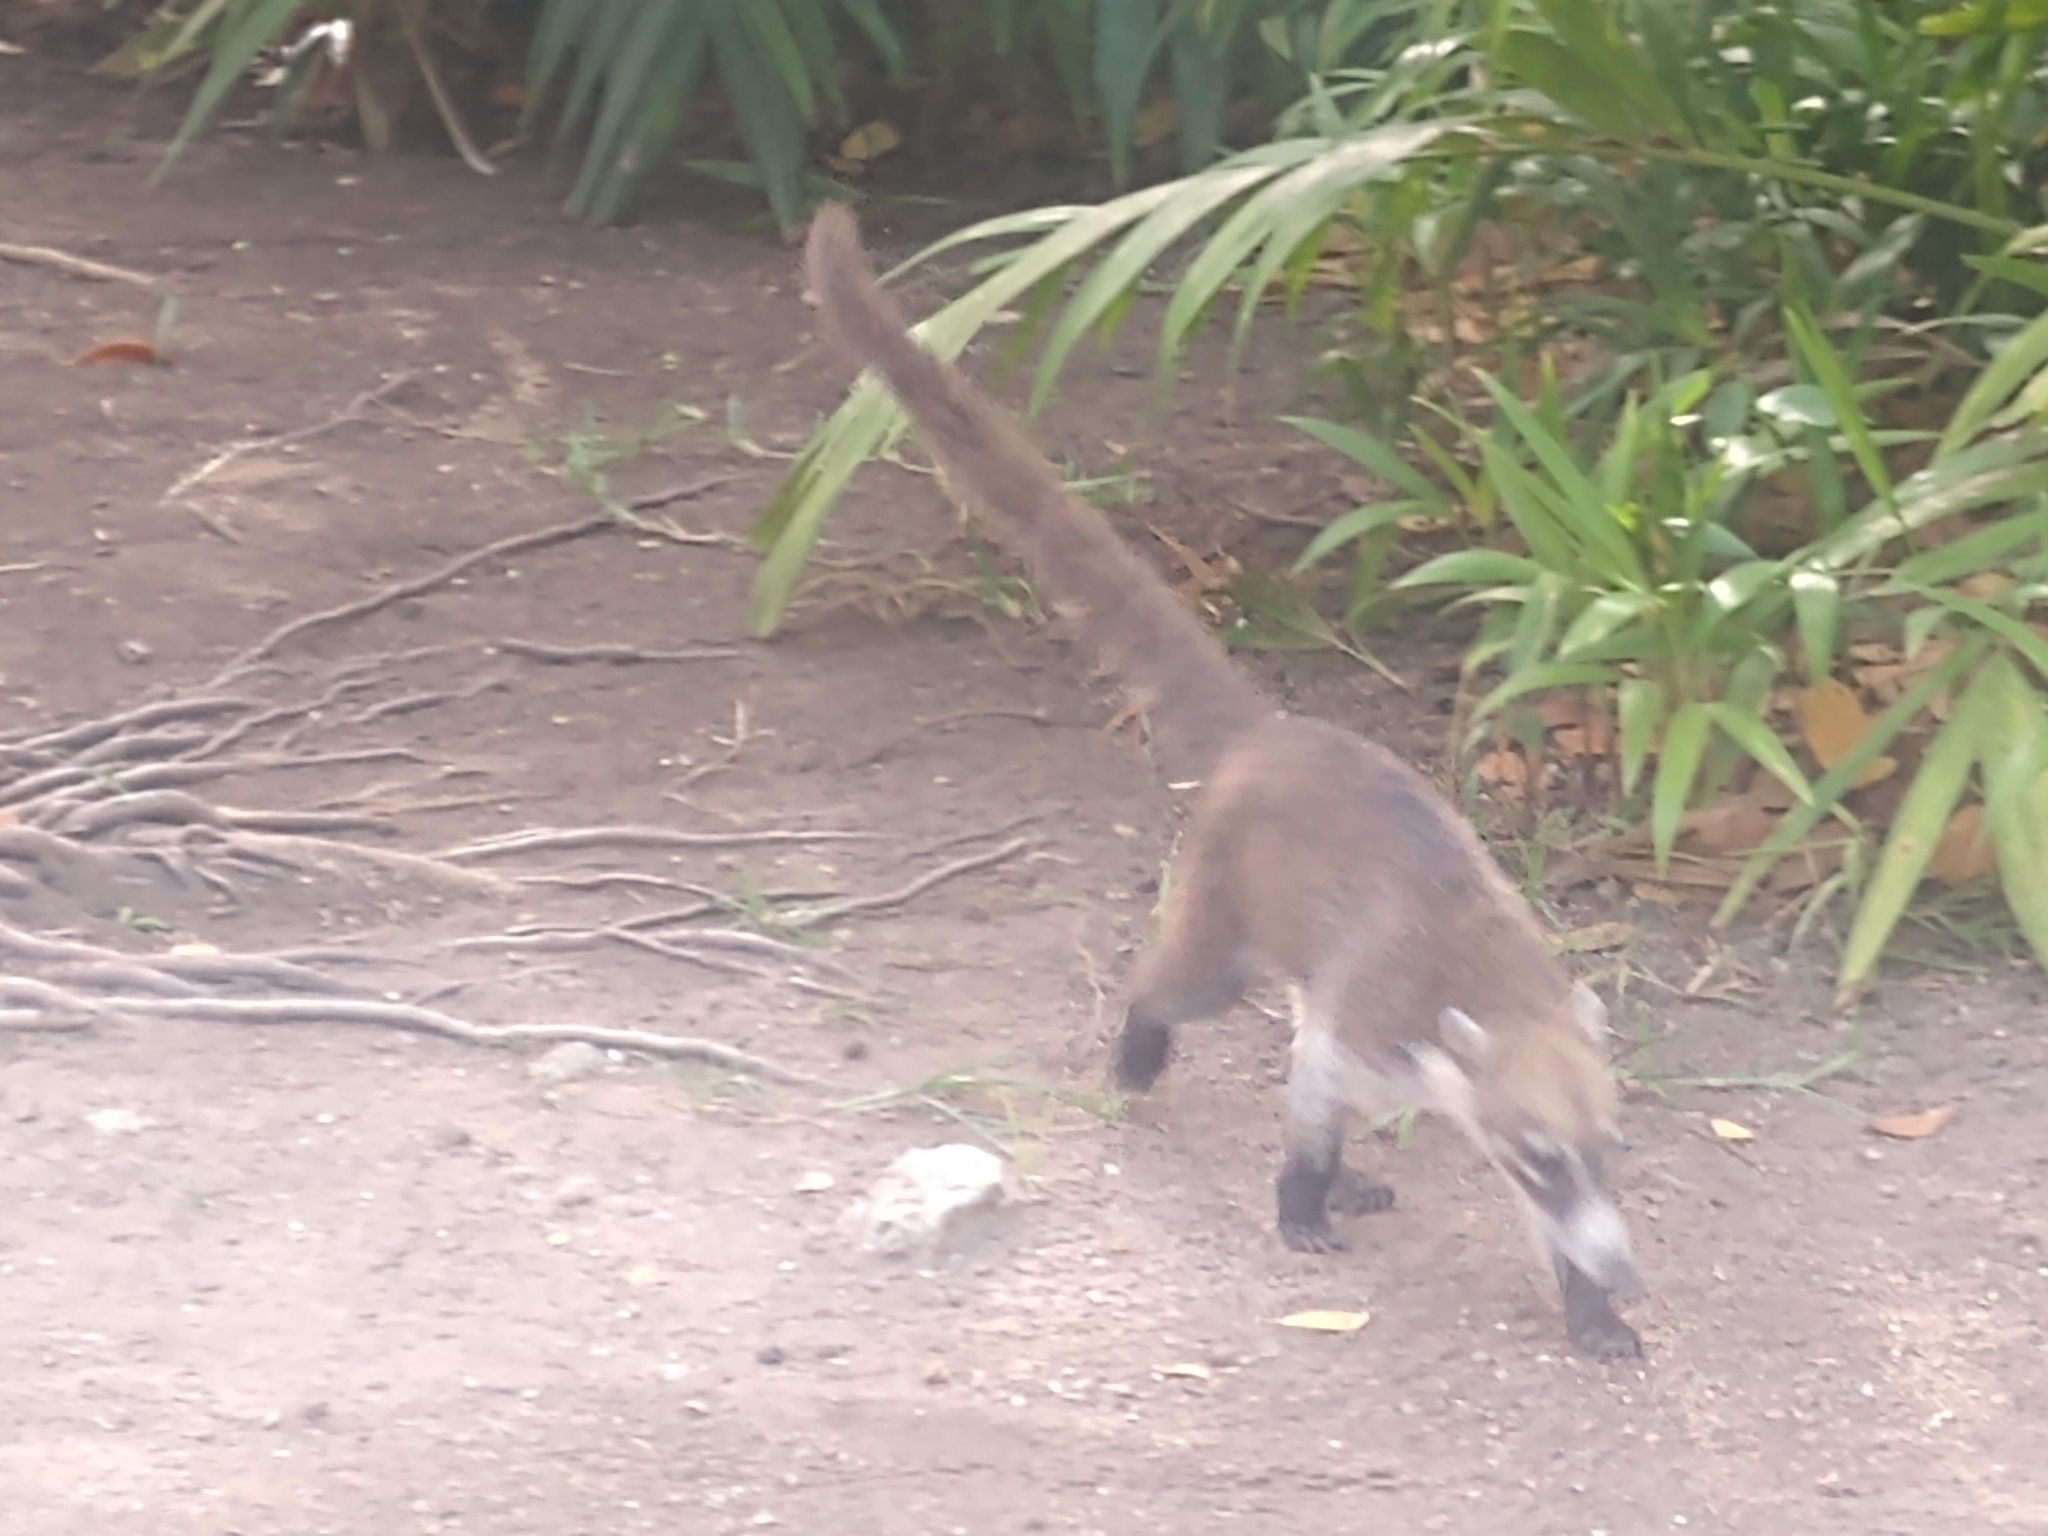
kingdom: Animalia
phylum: Chordata
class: Mammalia
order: Carnivora
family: Procyonidae
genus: Nasua
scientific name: Nasua narica
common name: White-nosed coati
